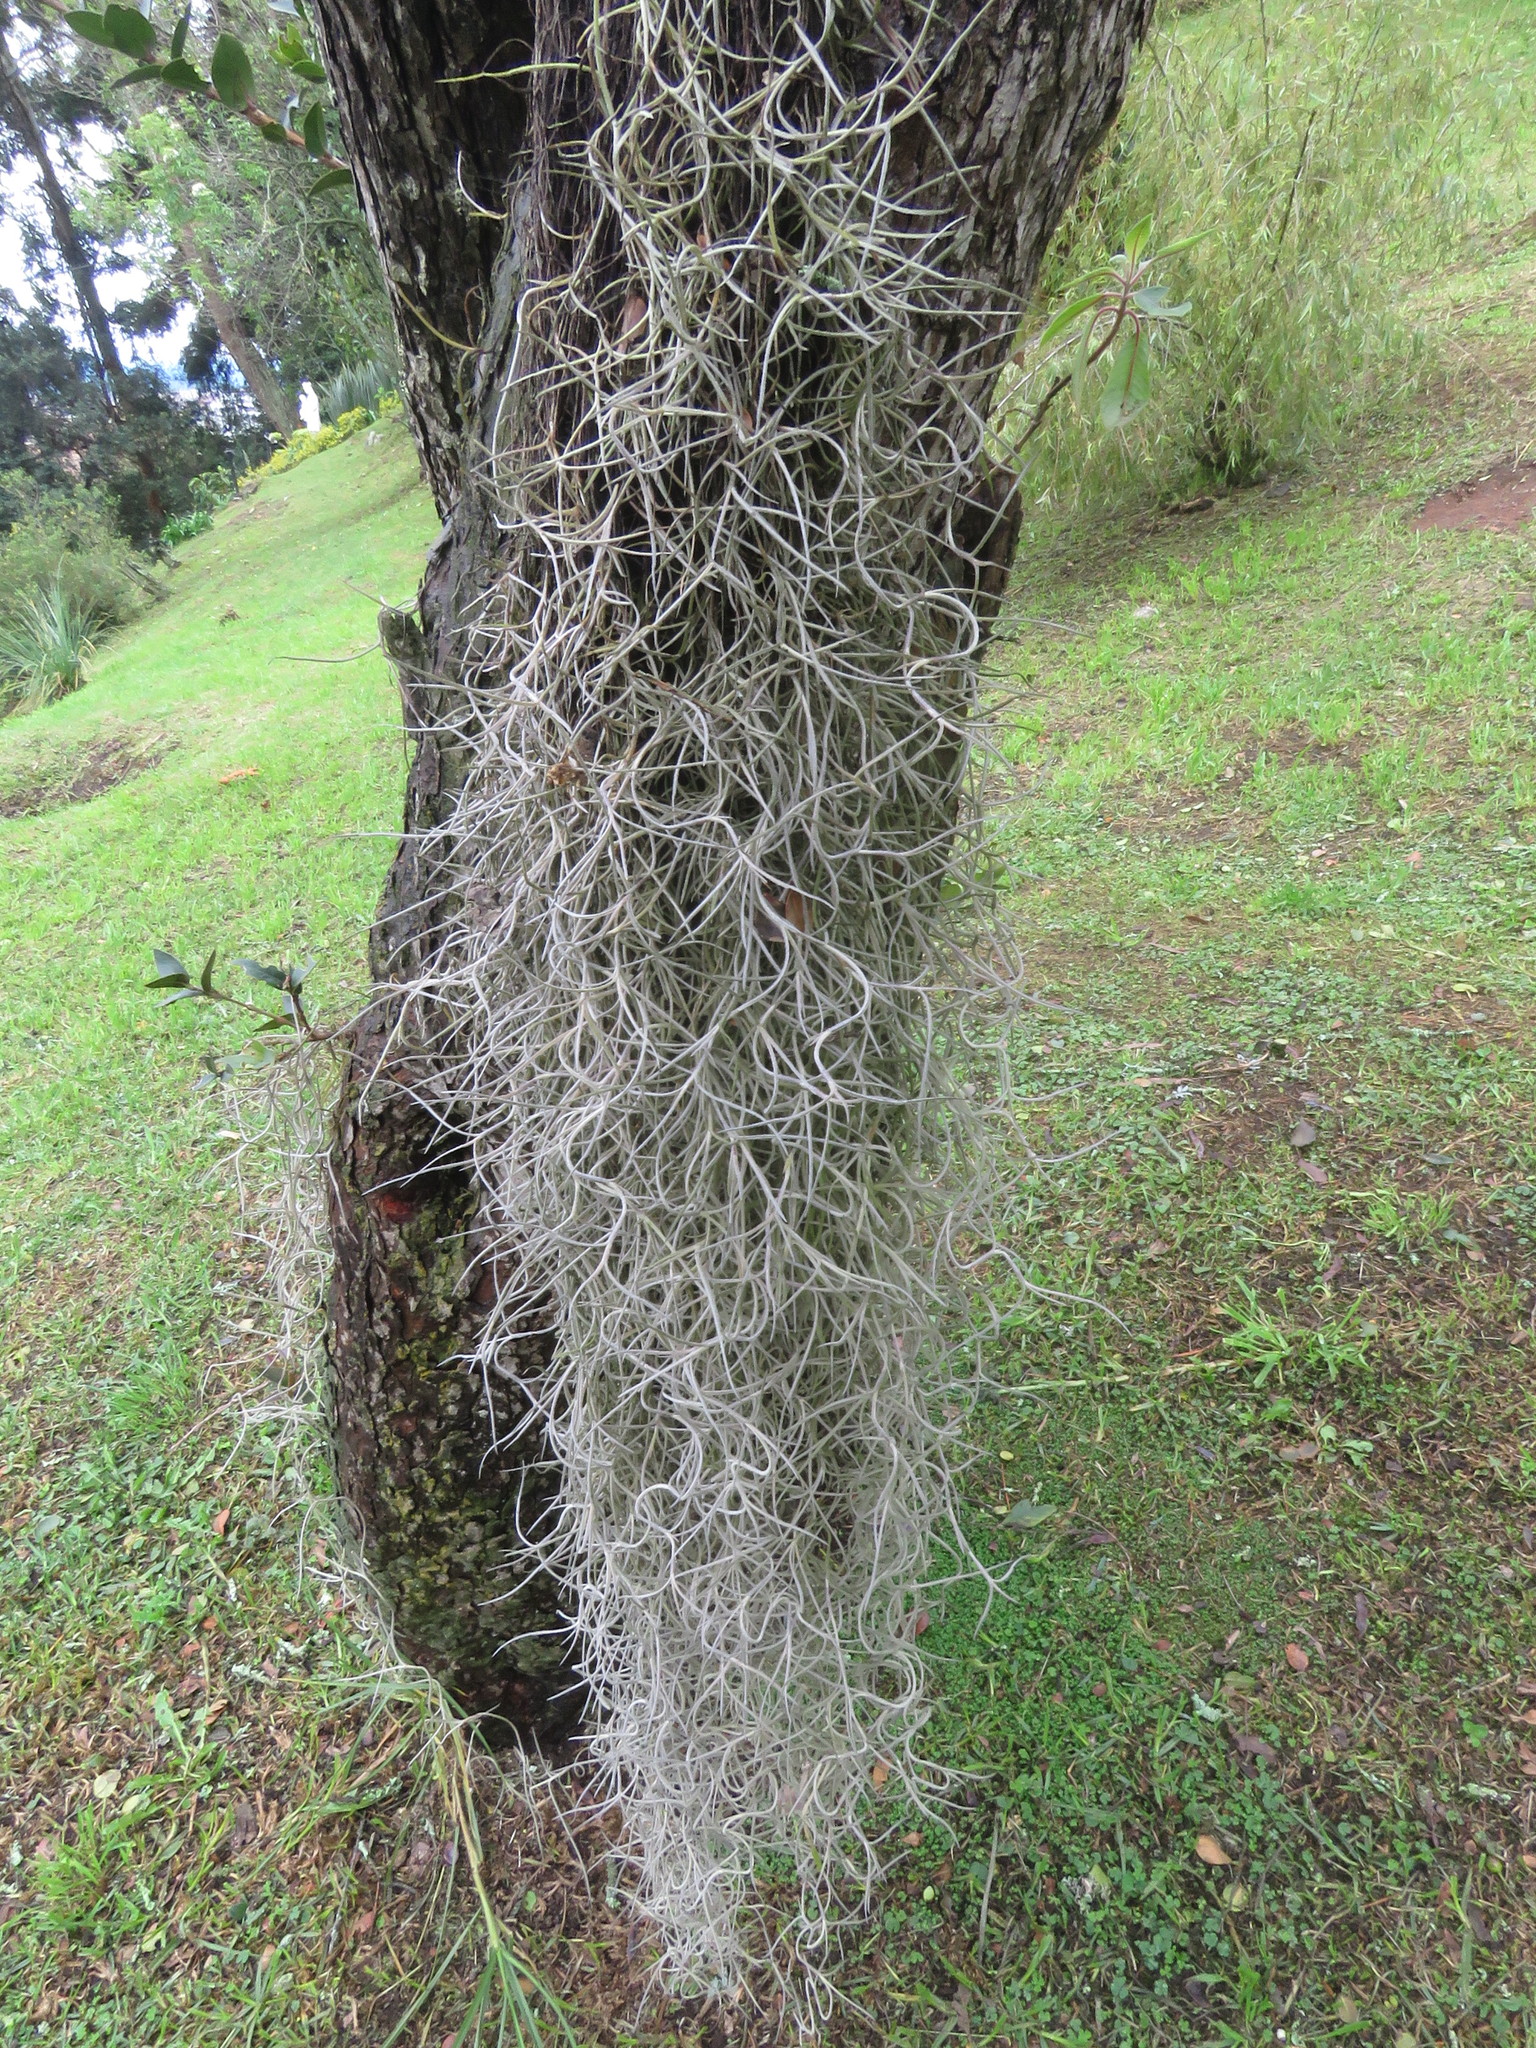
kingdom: Plantae
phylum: Tracheophyta
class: Liliopsida
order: Poales
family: Bromeliaceae
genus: Tillandsia
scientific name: Tillandsia usneoides
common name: Spanish moss
